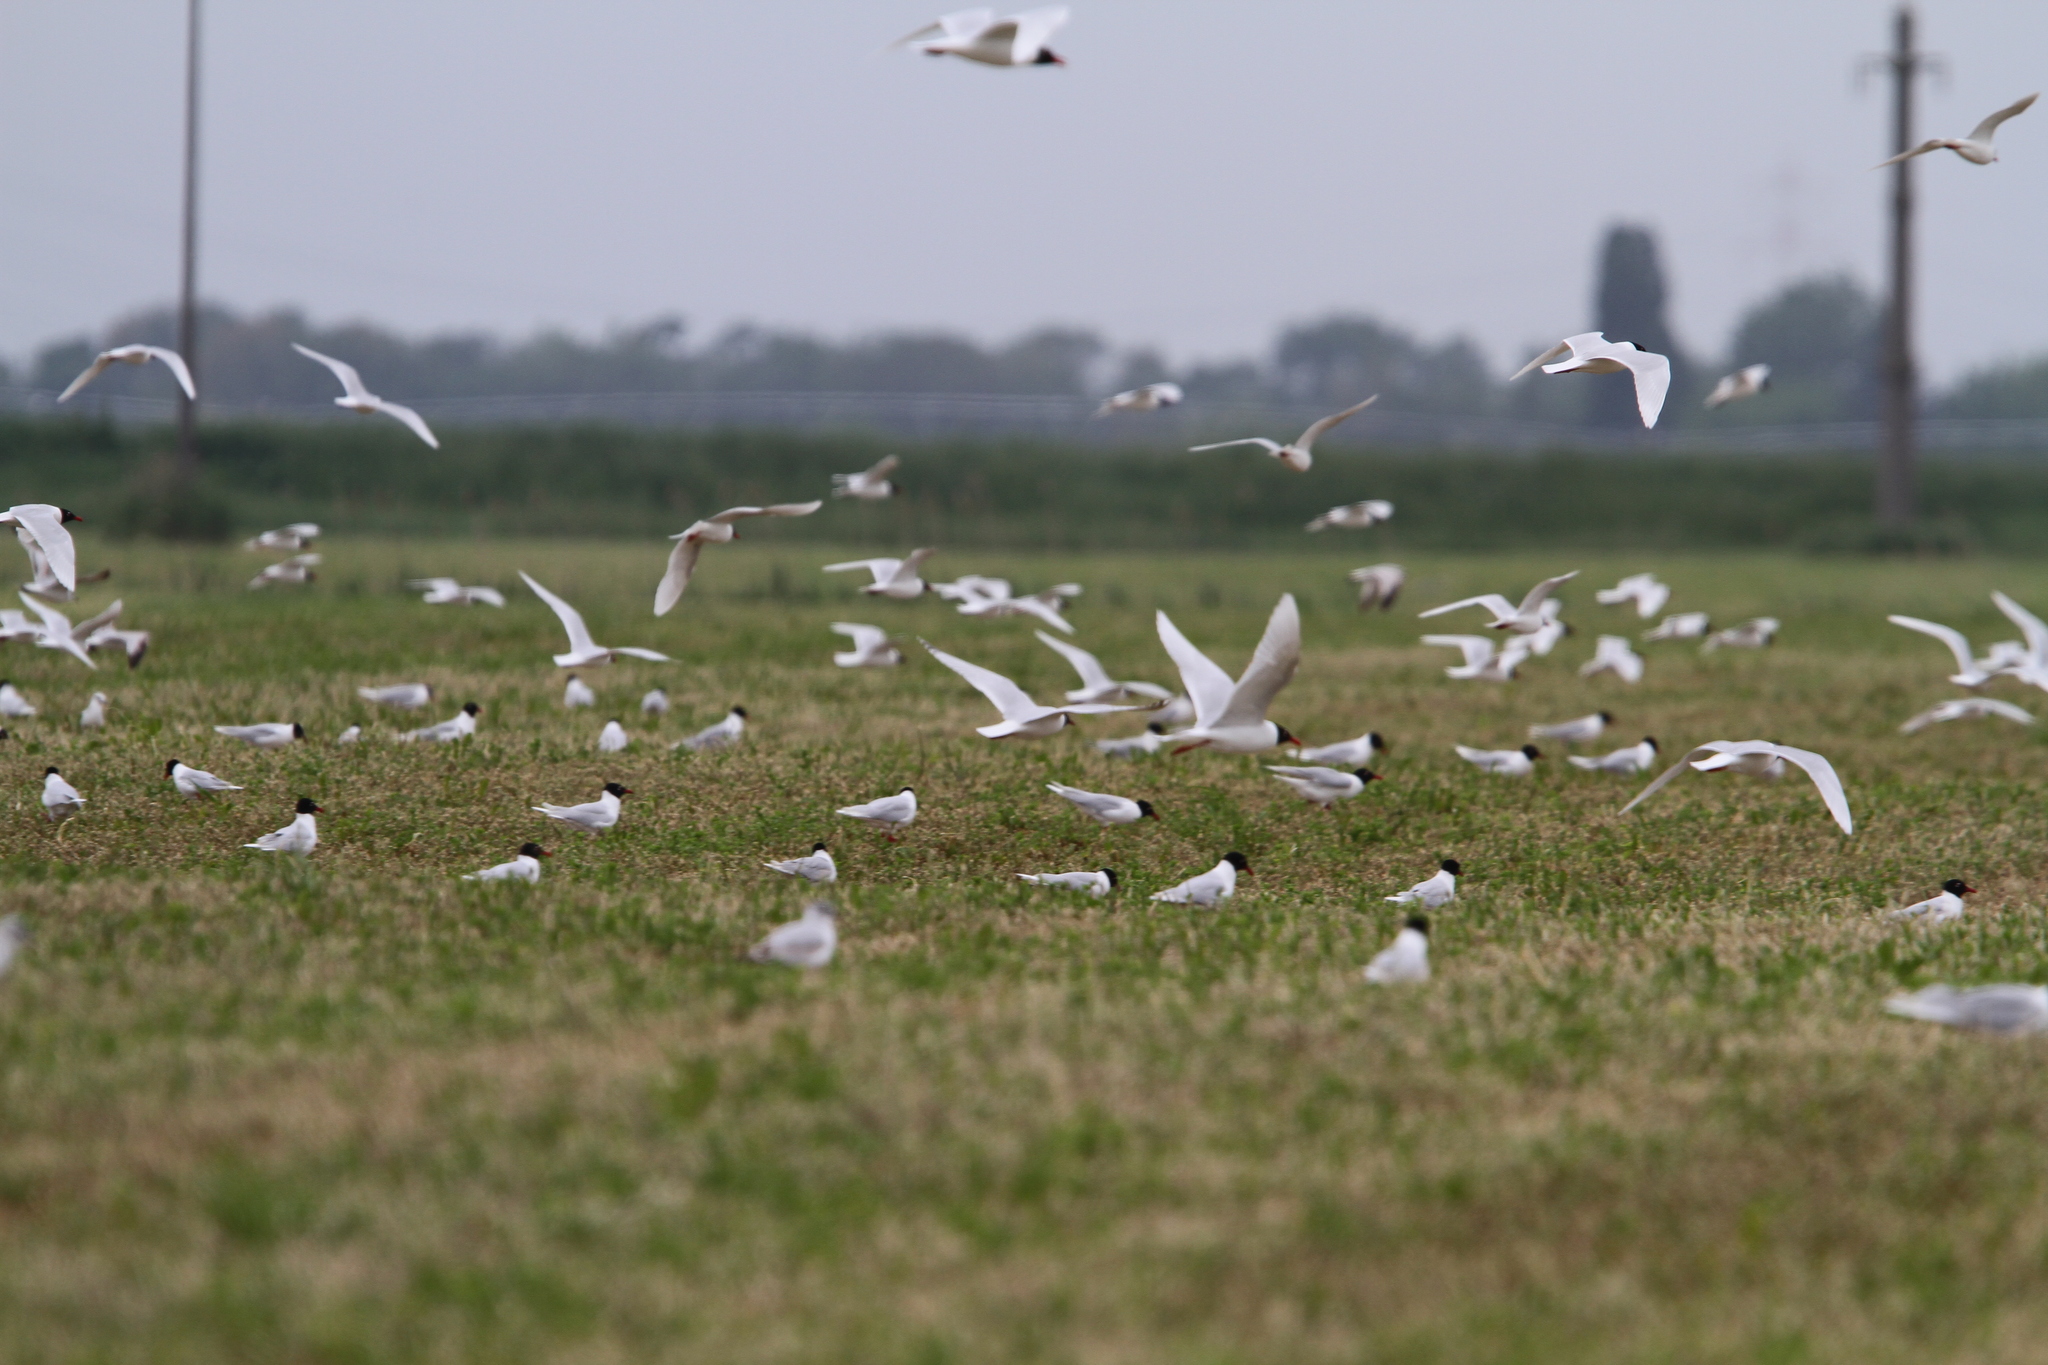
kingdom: Animalia
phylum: Chordata
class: Aves
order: Charadriiformes
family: Laridae
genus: Ichthyaetus
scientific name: Ichthyaetus melanocephalus
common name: Mediterranean gull
